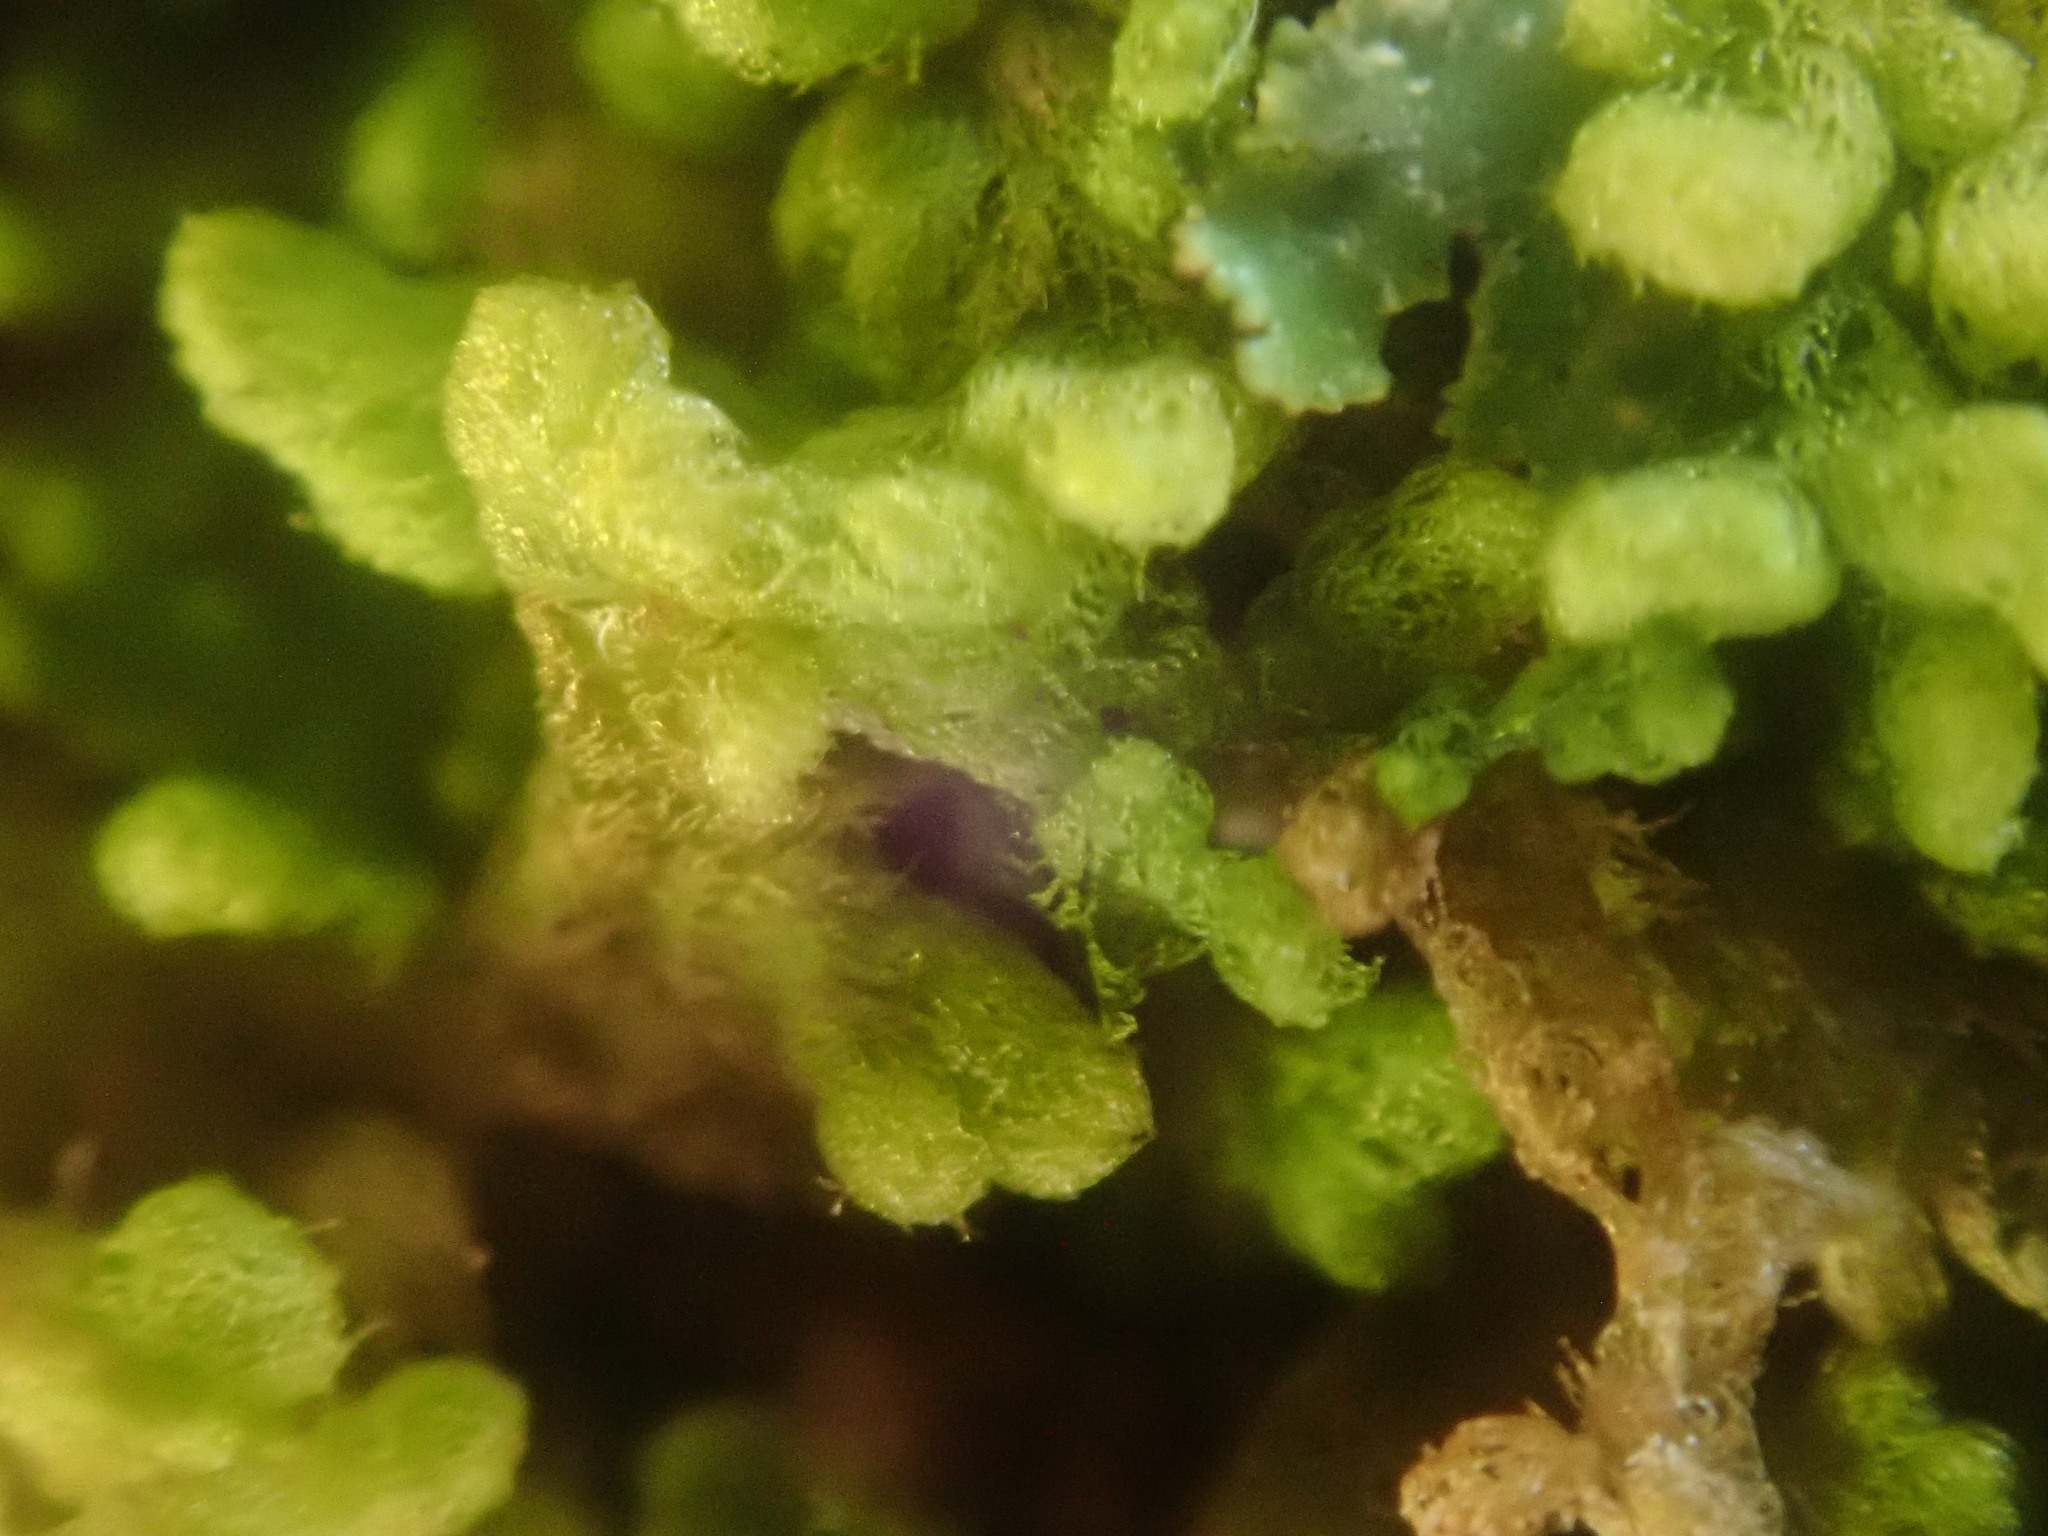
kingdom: Plantae
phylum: Marchantiophyta
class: Jungermanniopsida
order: Ptilidiales
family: Ptilidiaceae
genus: Ptilidium
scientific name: Ptilidium pulcherrimum
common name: Tree fringewort
